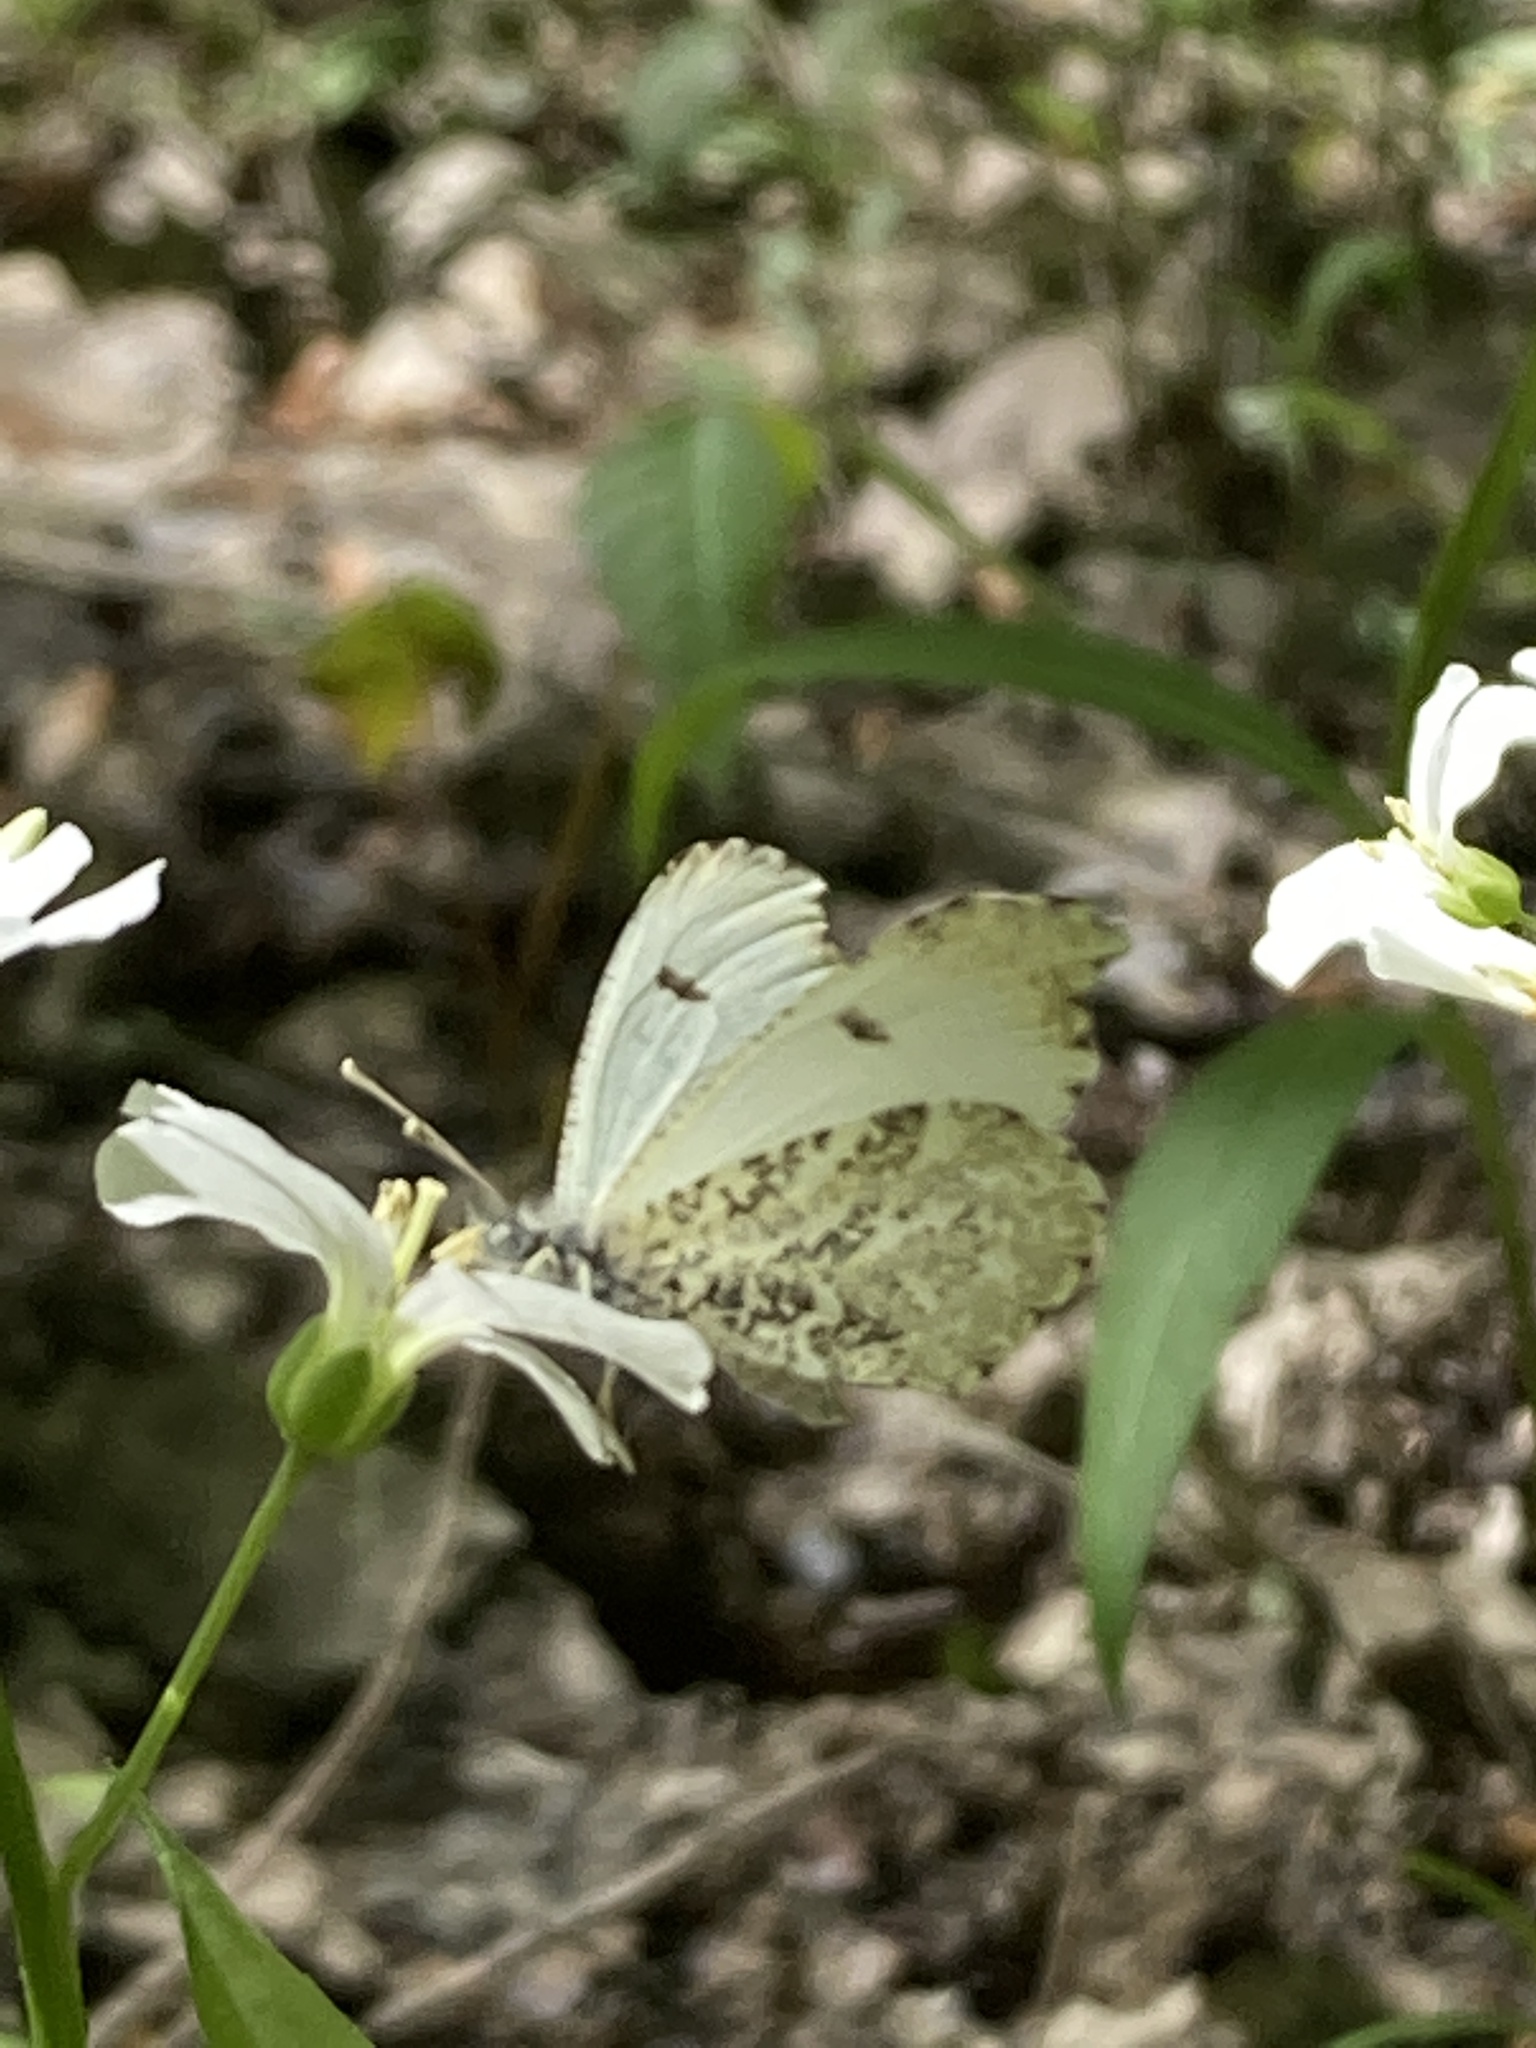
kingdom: Animalia
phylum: Arthropoda
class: Insecta
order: Lepidoptera
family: Pieridae
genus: Anthocharis
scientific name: Anthocharis midea
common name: Falcate orangetip
